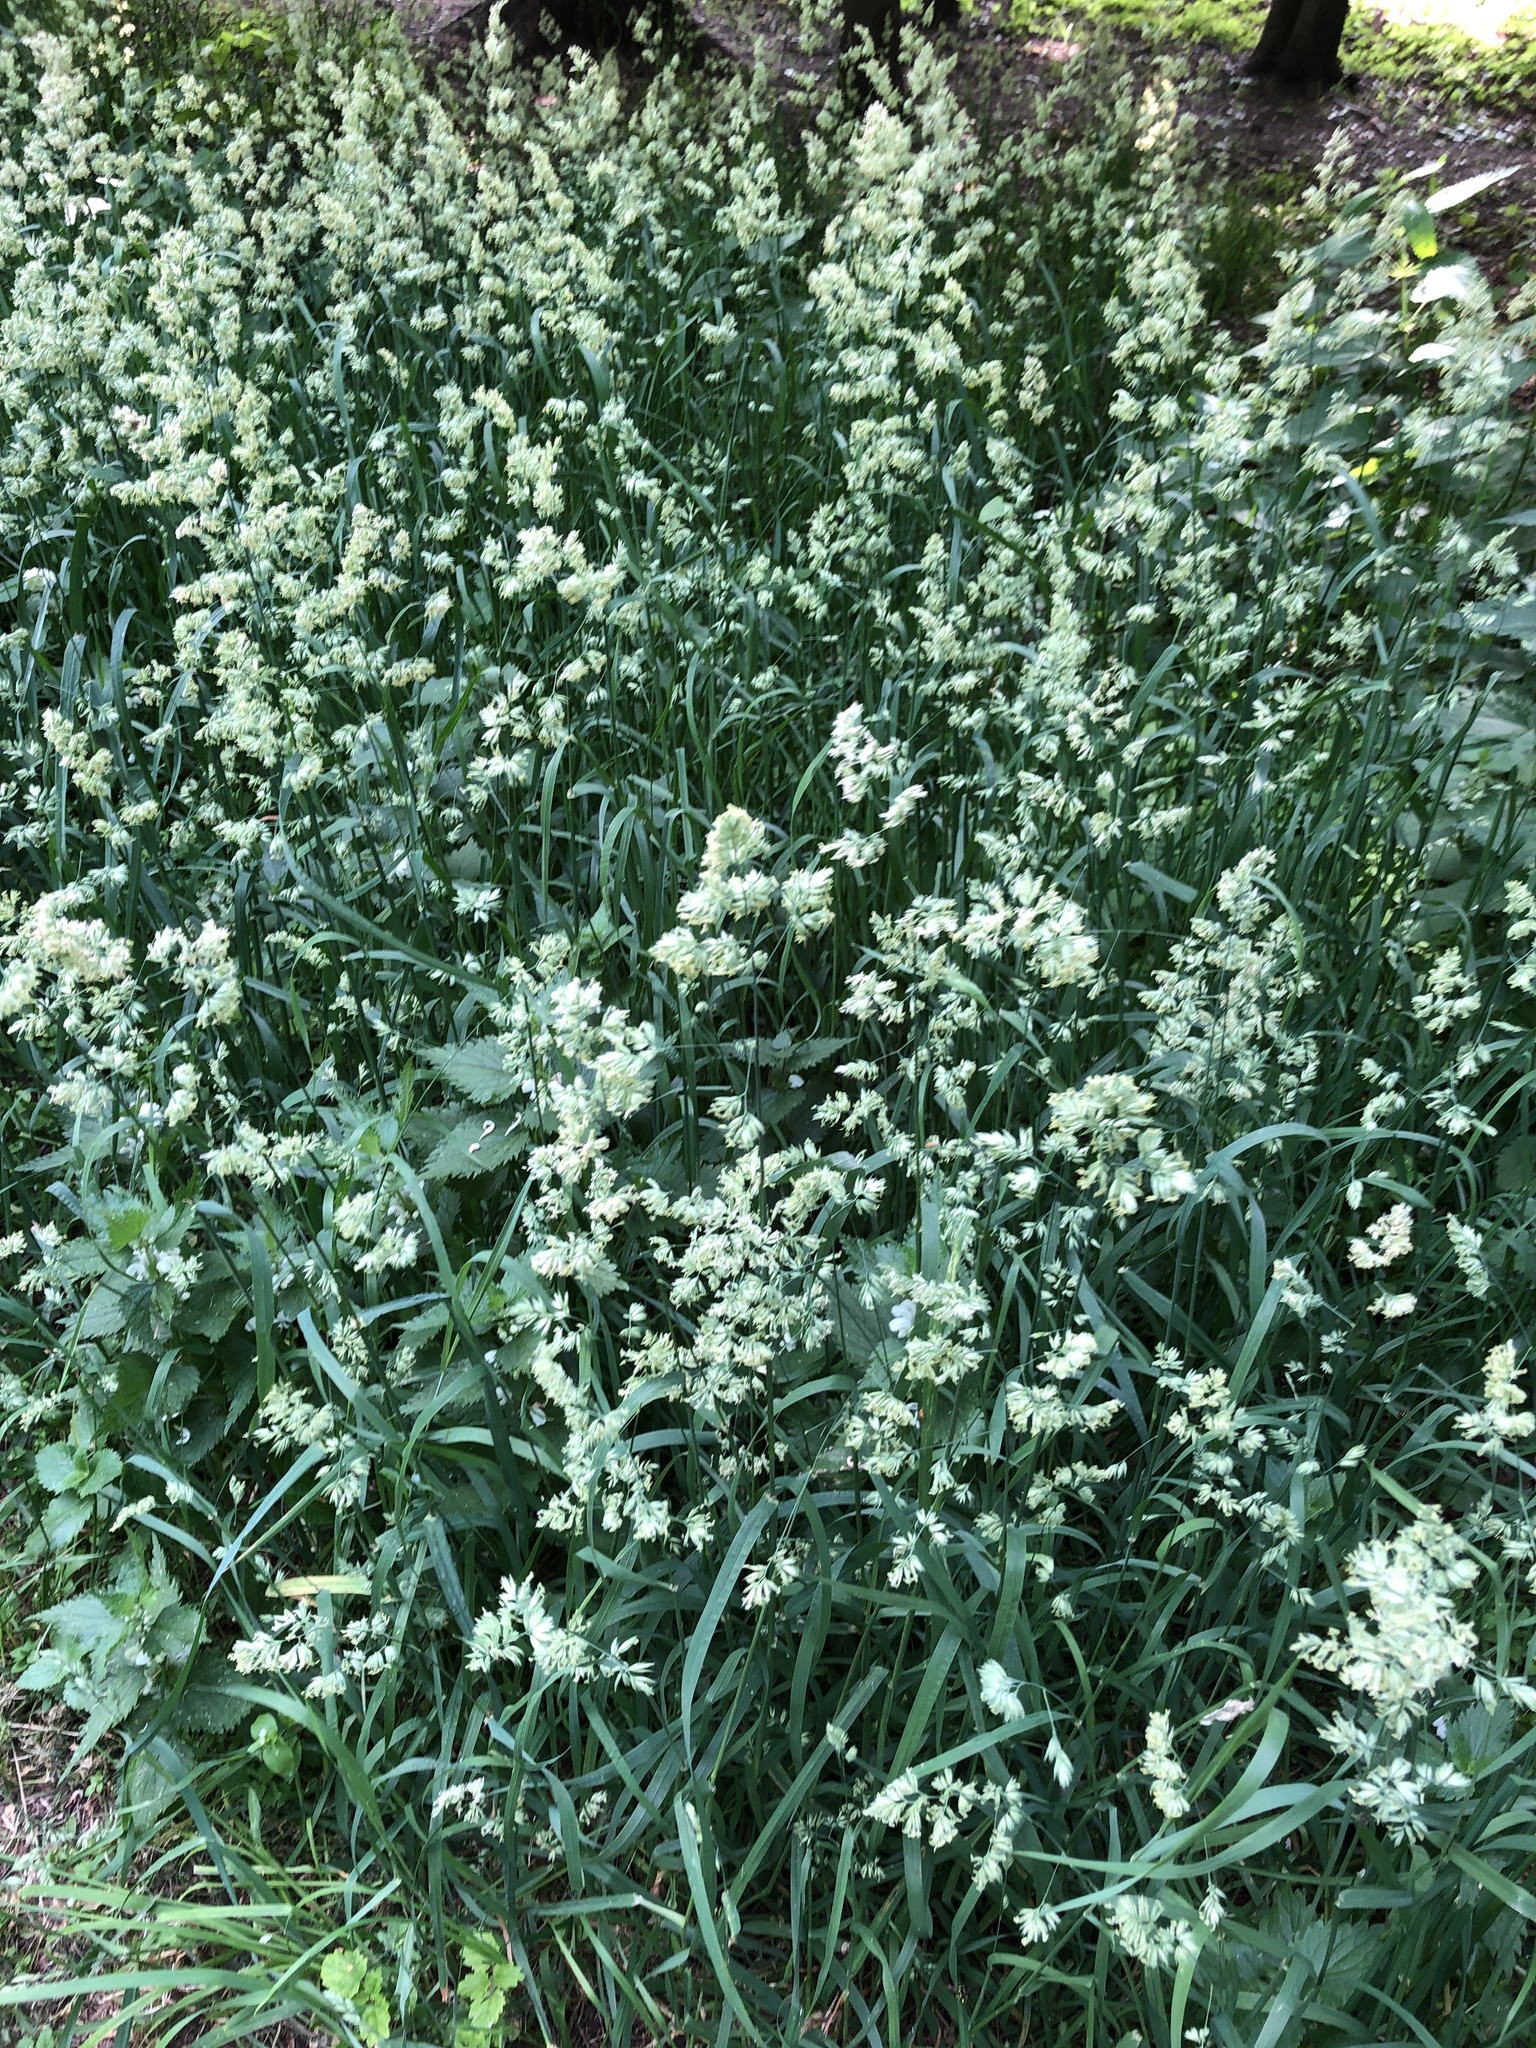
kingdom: Plantae
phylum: Tracheophyta
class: Liliopsida
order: Poales
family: Poaceae
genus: Dactylis
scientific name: Dactylis glomerata
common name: Orchardgrass
